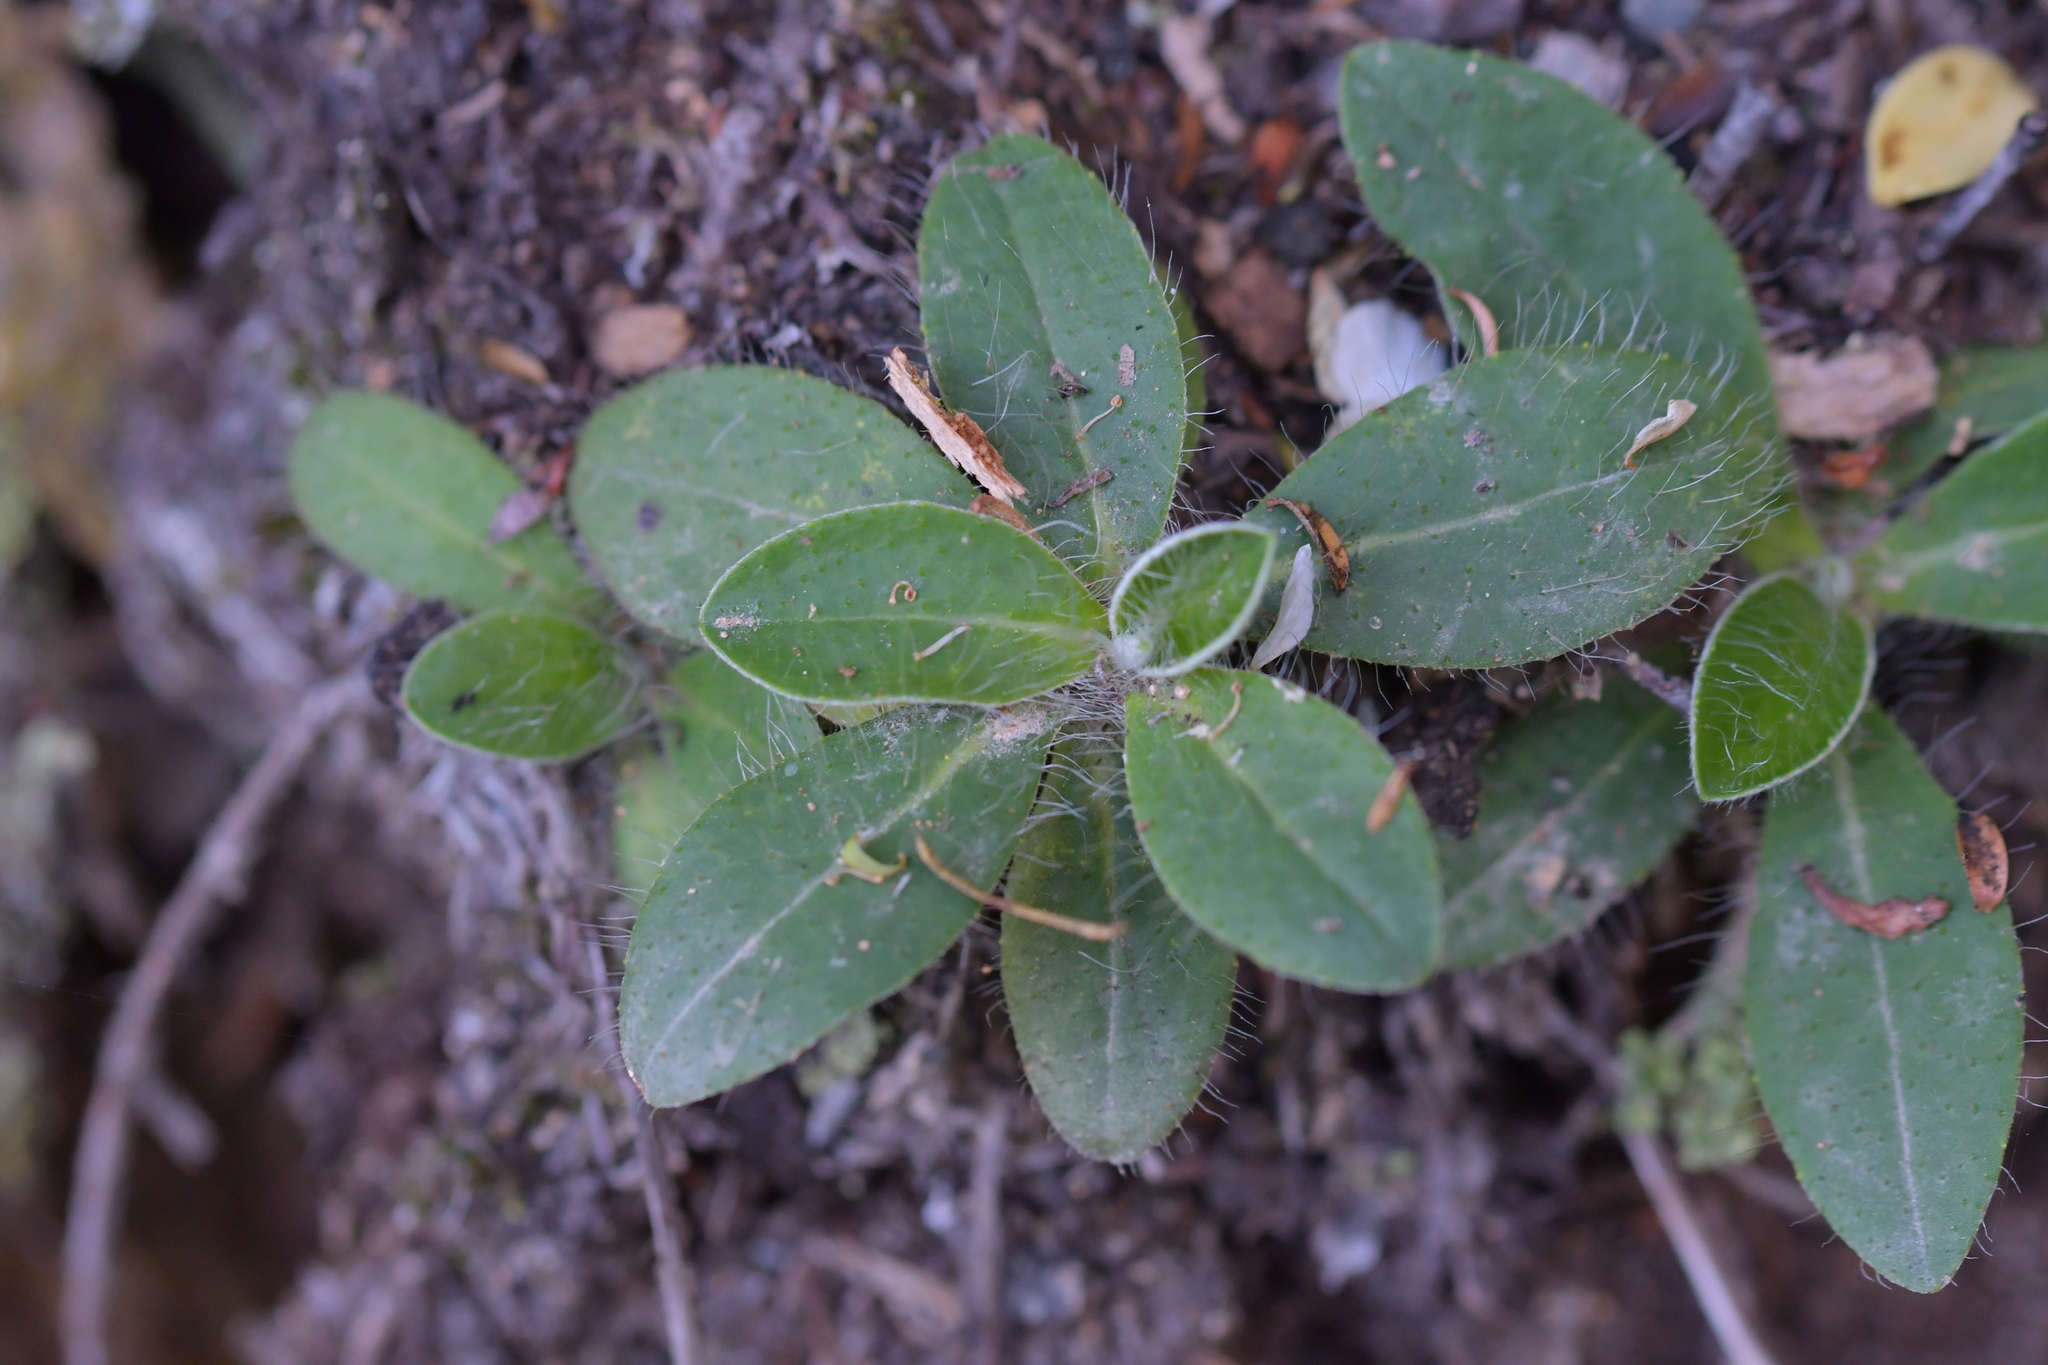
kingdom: Plantae
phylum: Tracheophyta
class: Magnoliopsida
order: Asterales
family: Asteraceae
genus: Pilosella
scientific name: Pilosella officinarum
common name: Mouse-ear hawkweed
